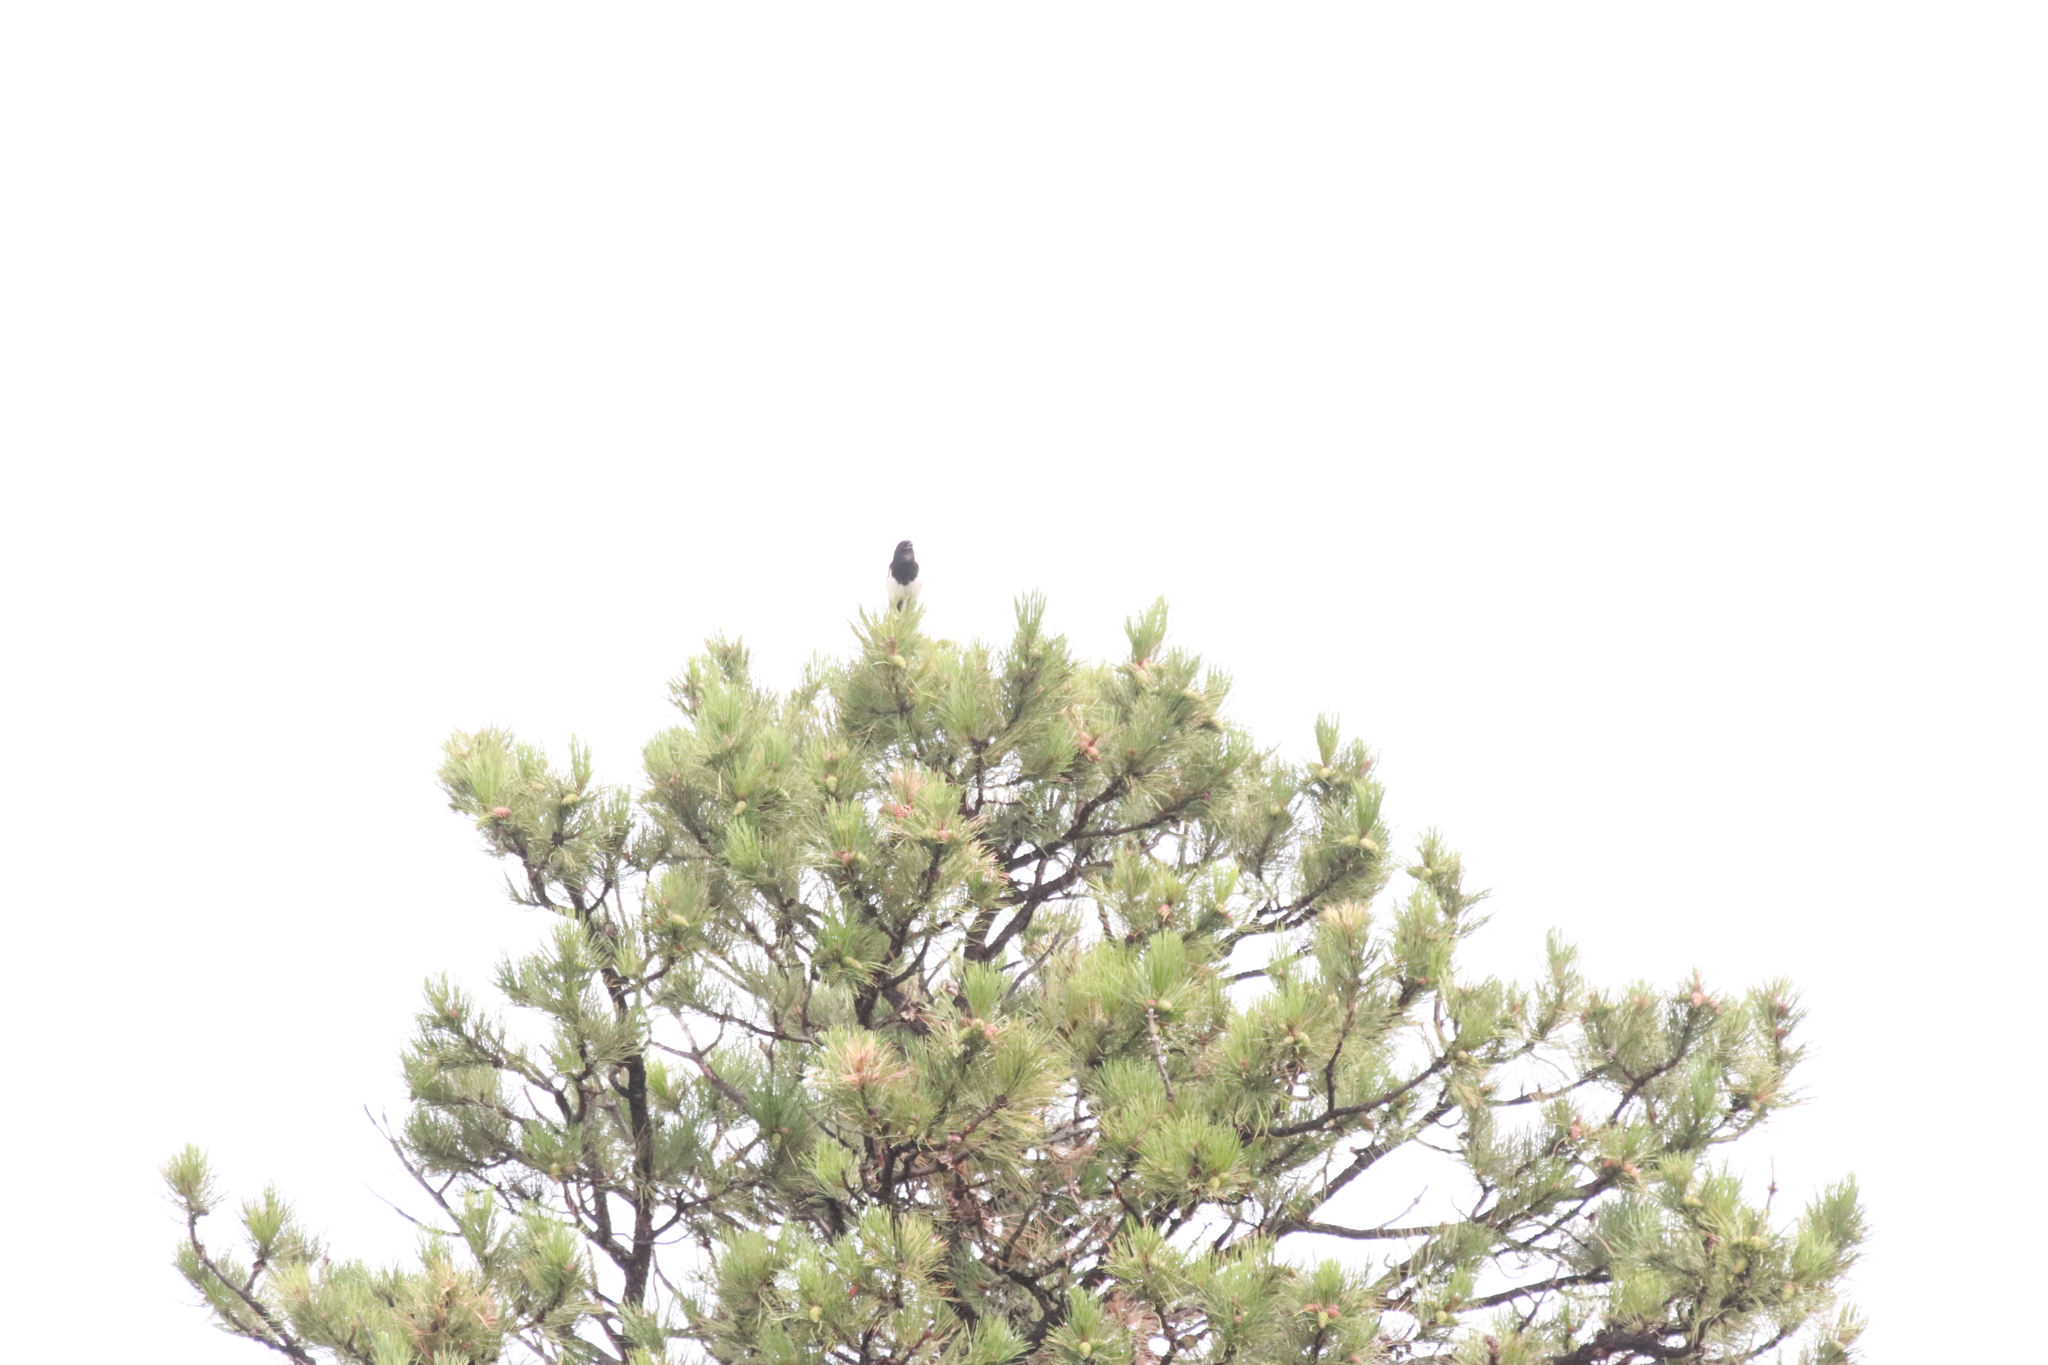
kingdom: Animalia
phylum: Chordata
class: Aves
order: Passeriformes
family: Corvidae
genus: Pica
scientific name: Pica hudsonia
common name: Black-billed magpie
